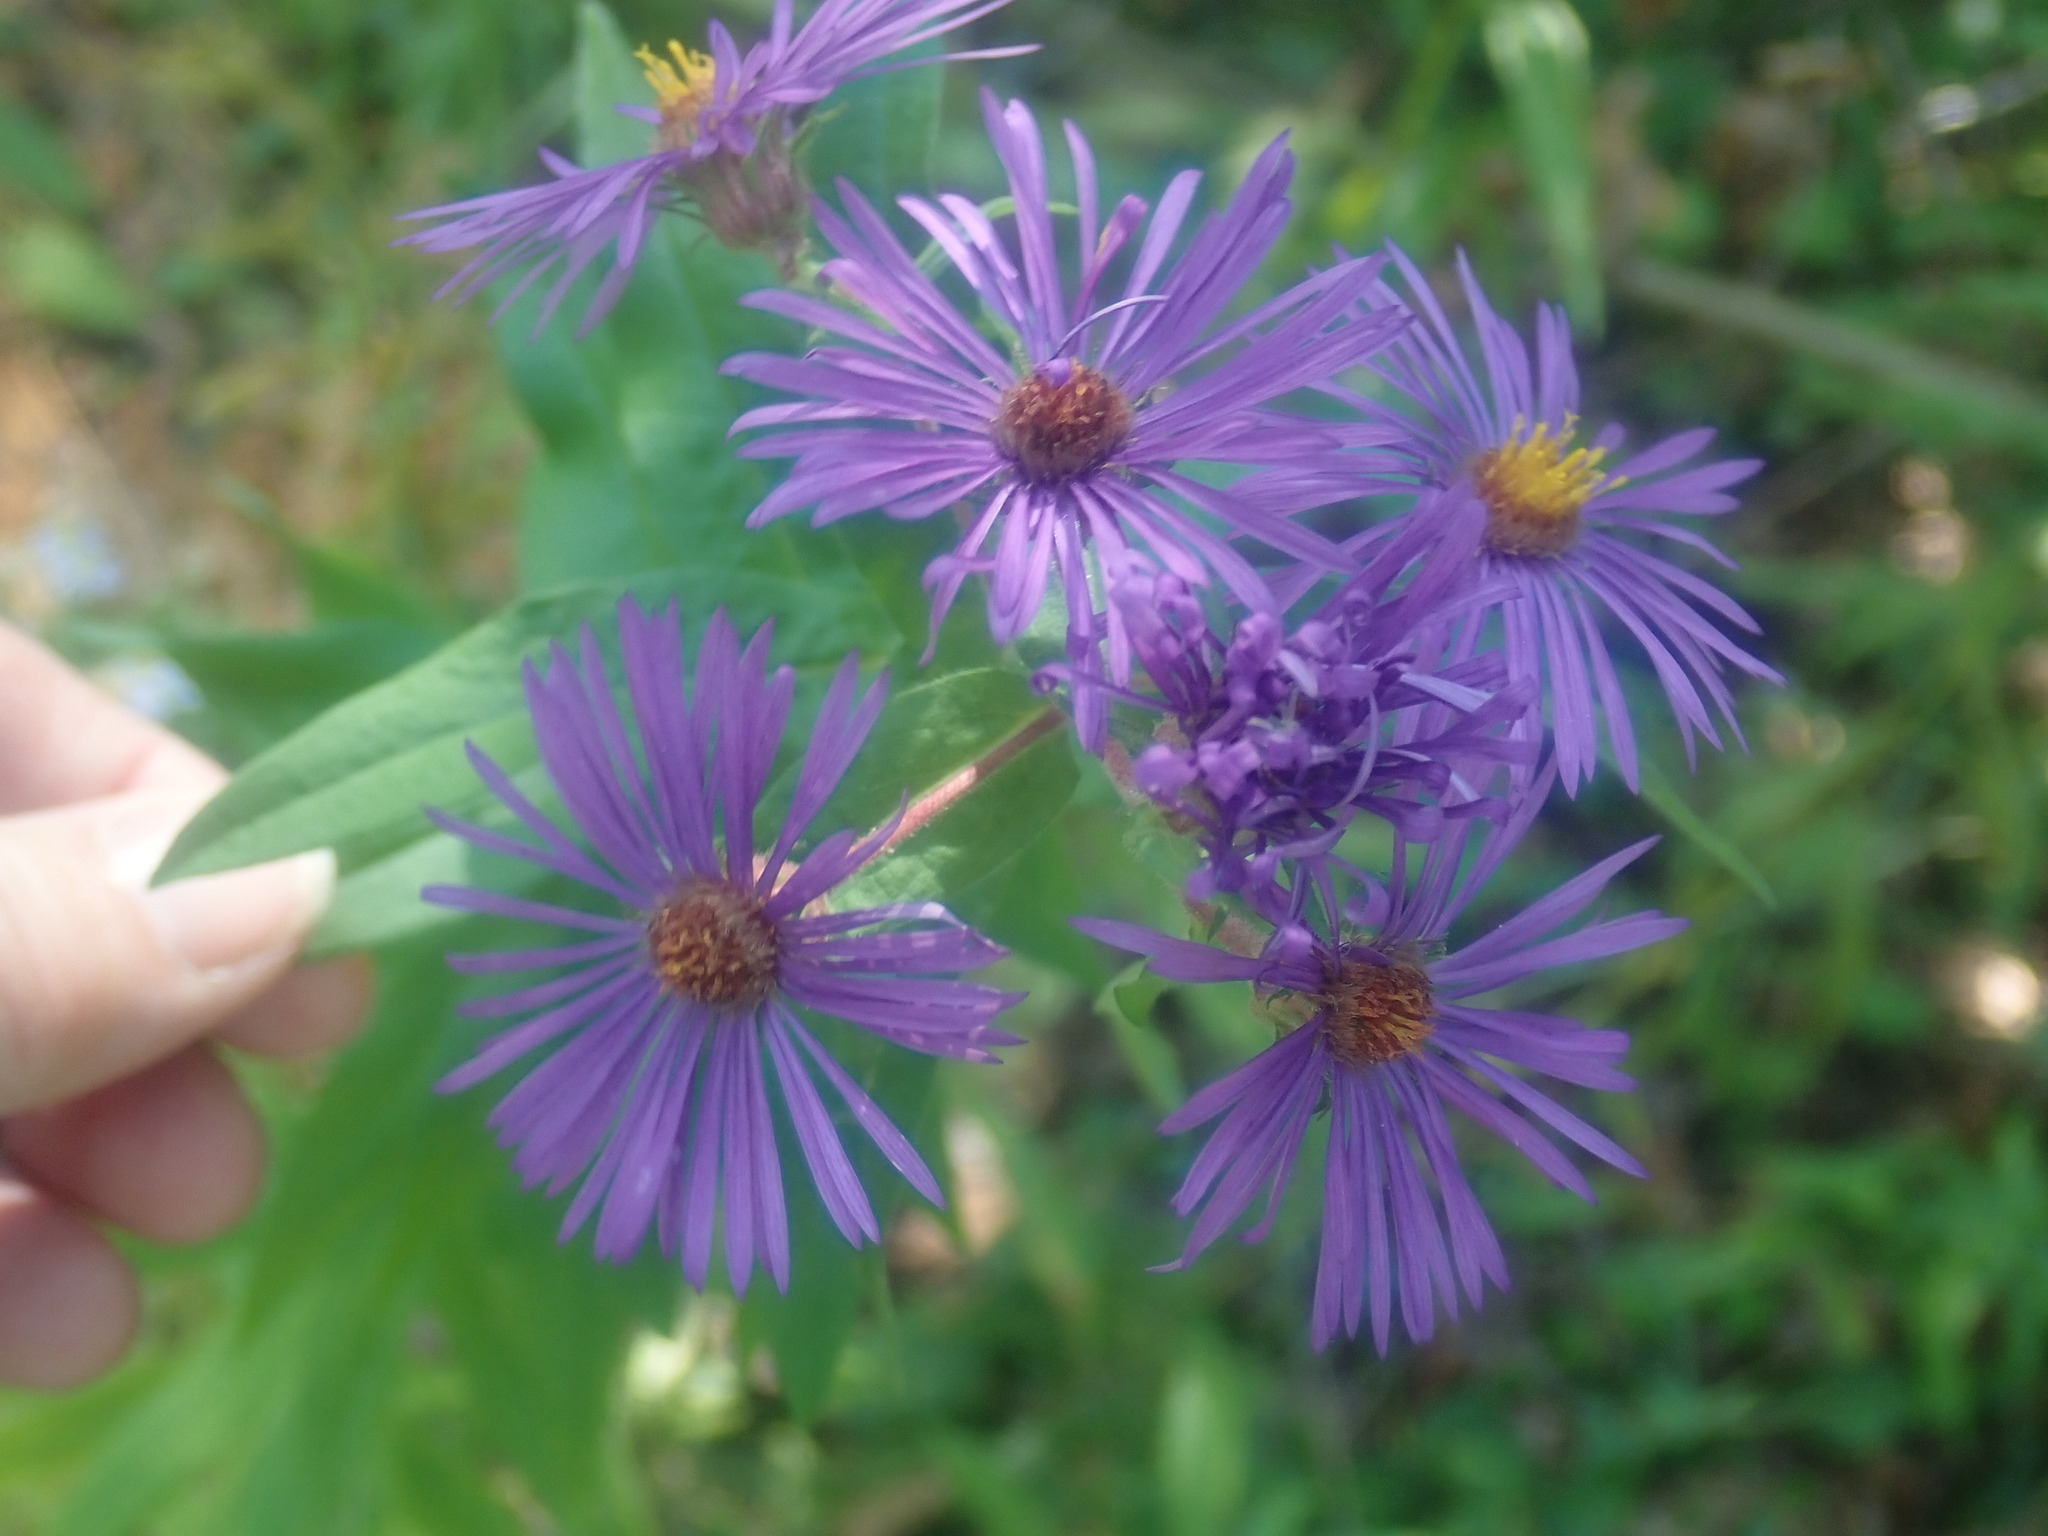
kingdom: Plantae
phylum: Tracheophyta
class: Magnoliopsida
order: Asterales
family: Asteraceae
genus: Symphyotrichum
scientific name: Symphyotrichum novae-angliae
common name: Michaelmas daisy
